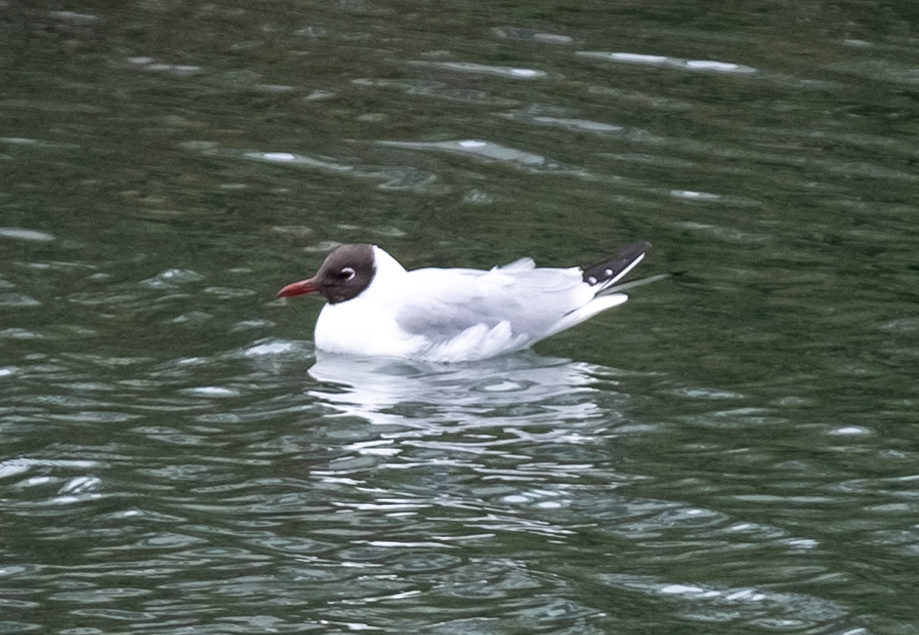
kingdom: Animalia
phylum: Chordata
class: Aves
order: Charadriiformes
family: Laridae
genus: Chroicocephalus
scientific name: Chroicocephalus ridibundus
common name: Black-headed gull
